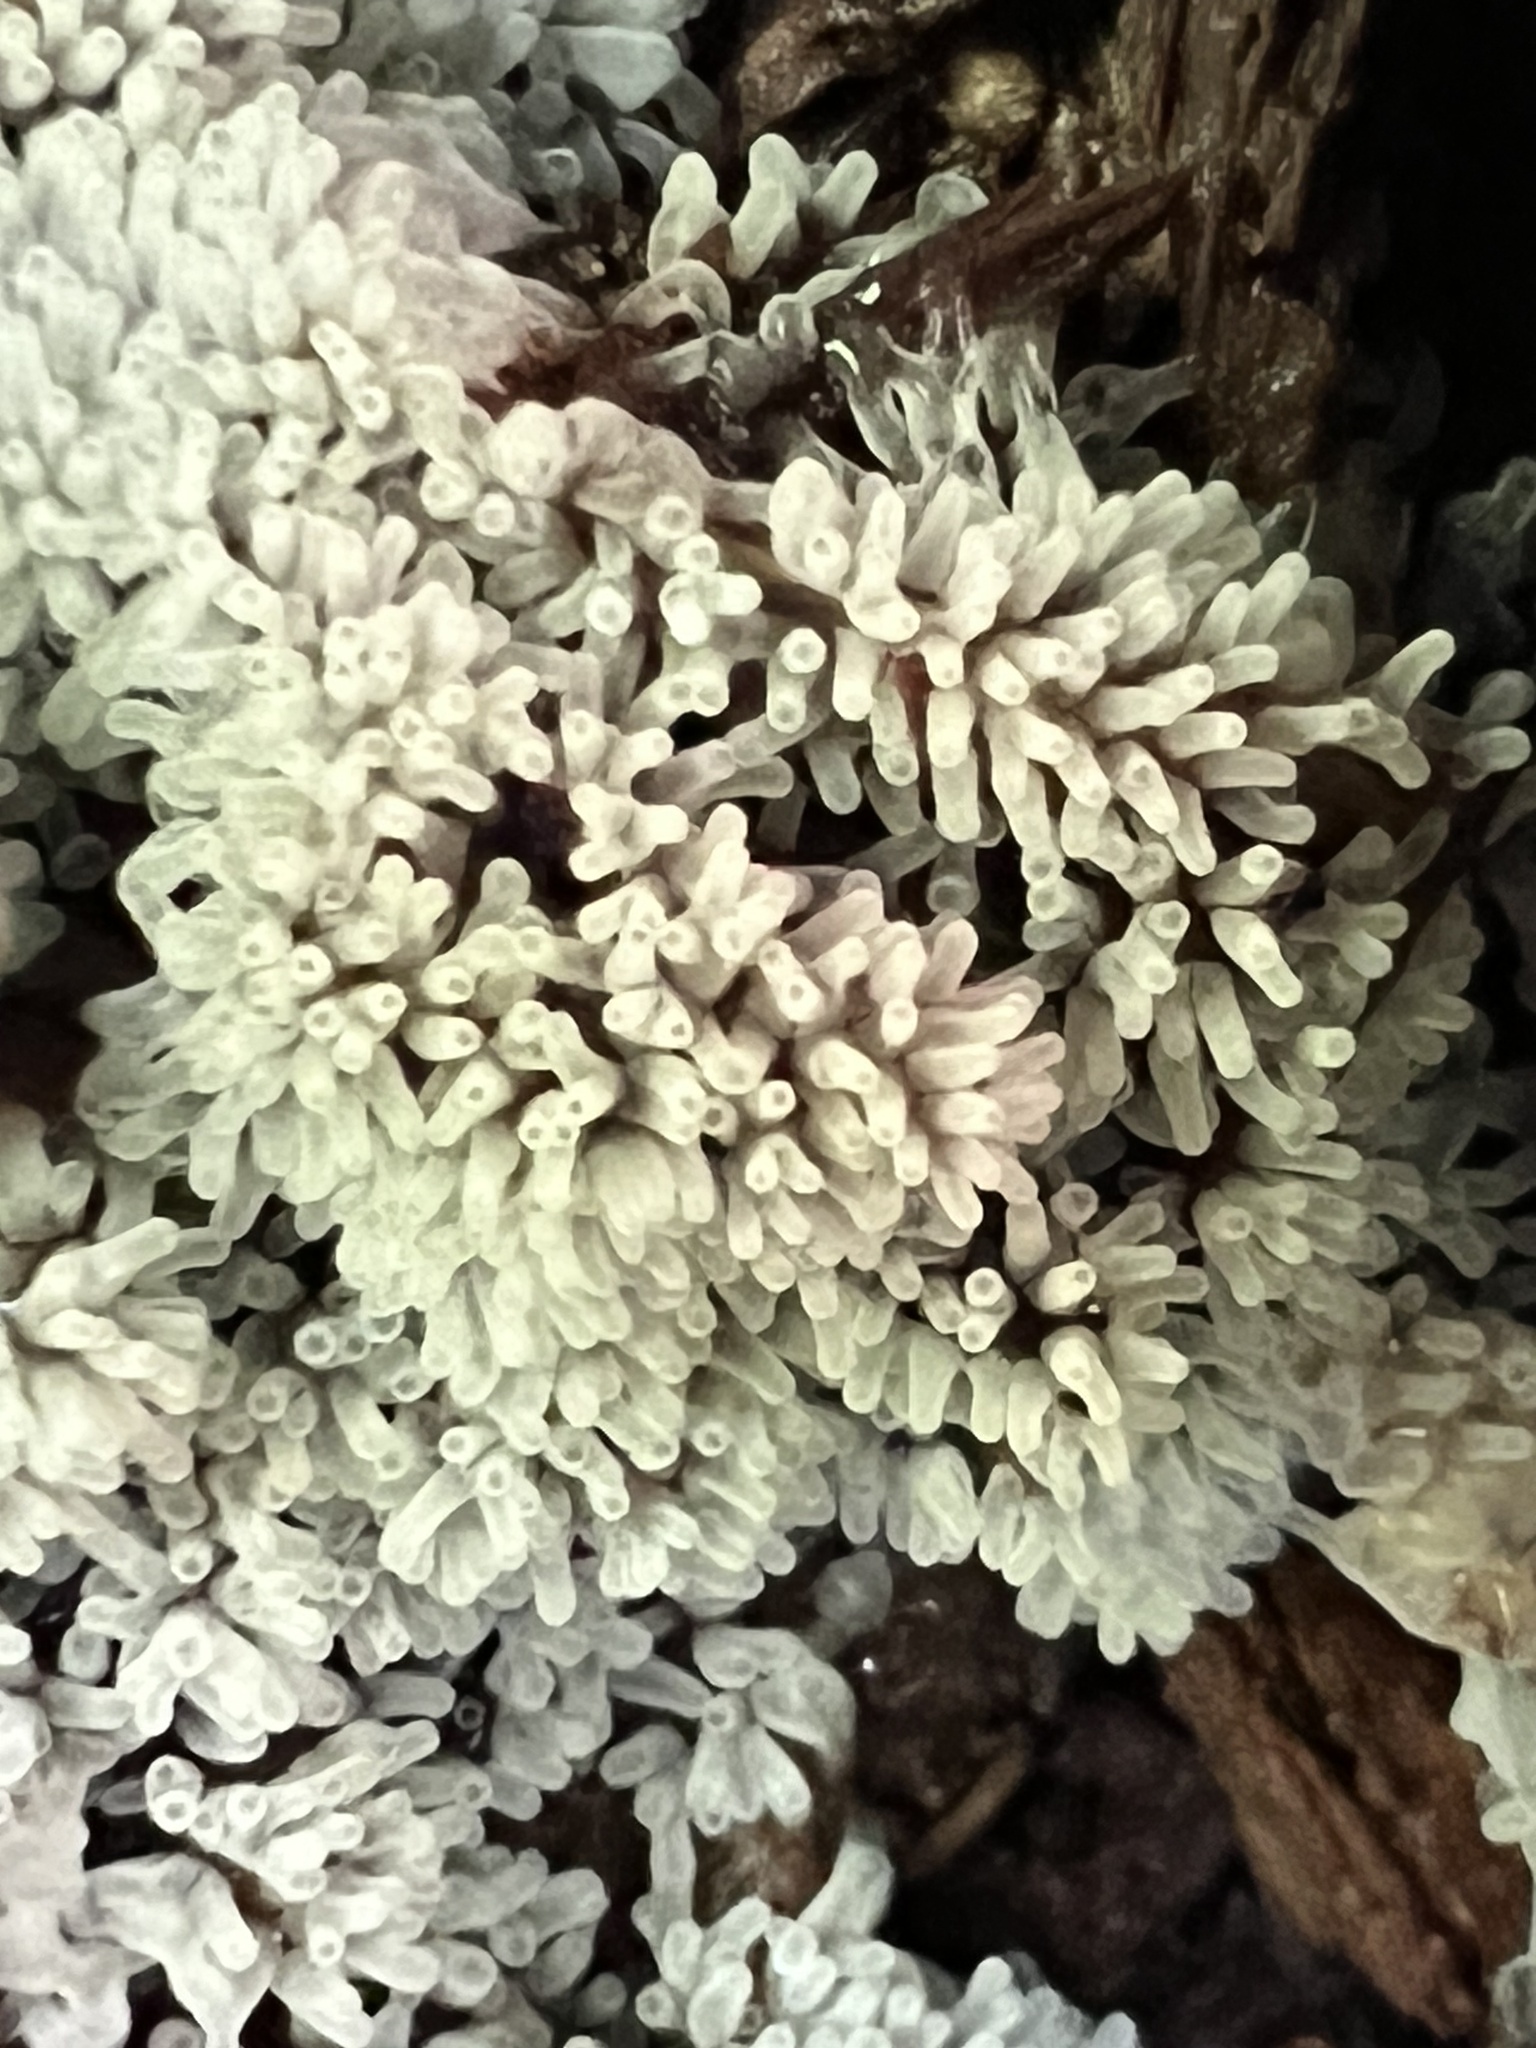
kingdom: Protozoa
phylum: Mycetozoa
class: Protosteliomycetes
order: Ceratiomyxales
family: Ceratiomyxaceae
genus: Ceratiomyxa
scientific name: Ceratiomyxa fruticulosa
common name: Honeycomb coral slime mold
